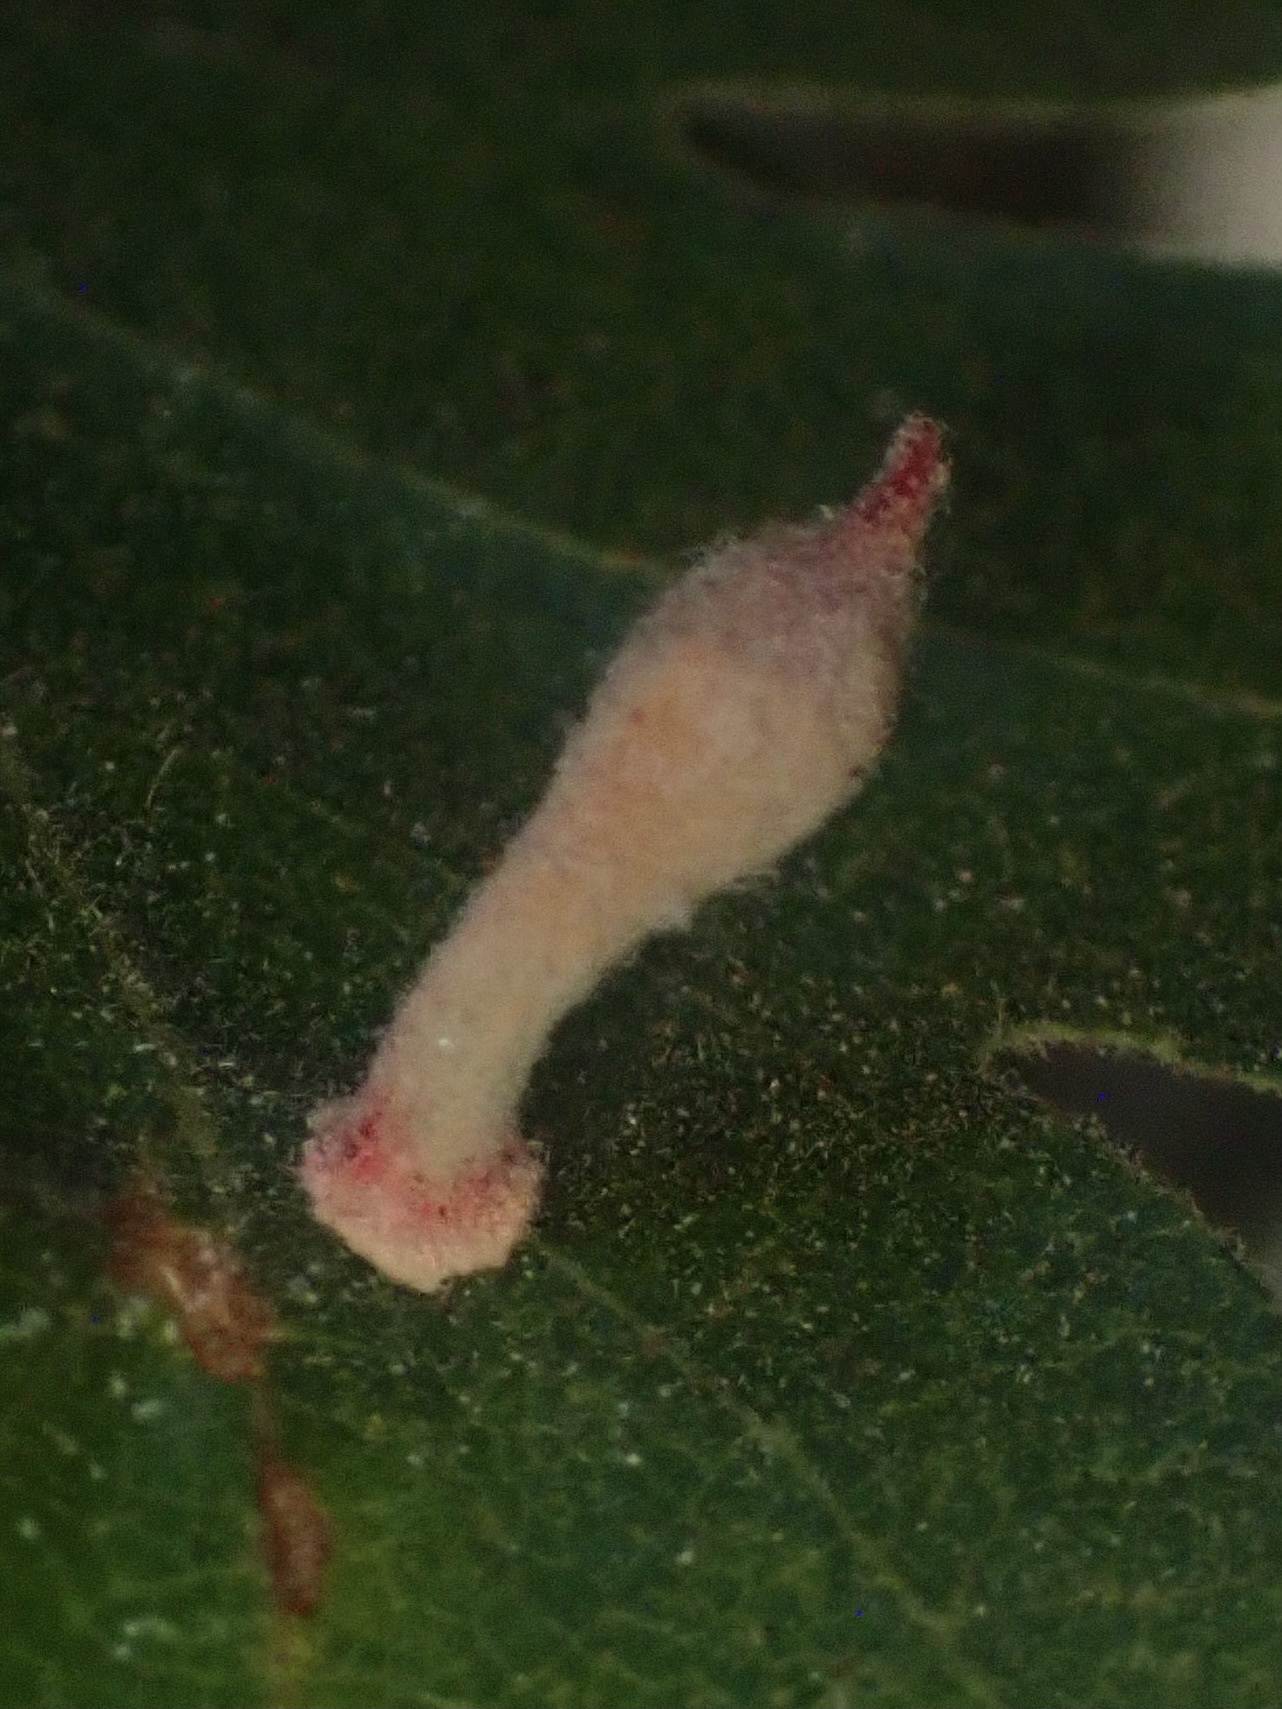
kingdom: Animalia
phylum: Arthropoda
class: Insecta
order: Hymenoptera
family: Cynipidae
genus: Atrusca
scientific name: Atrusca
